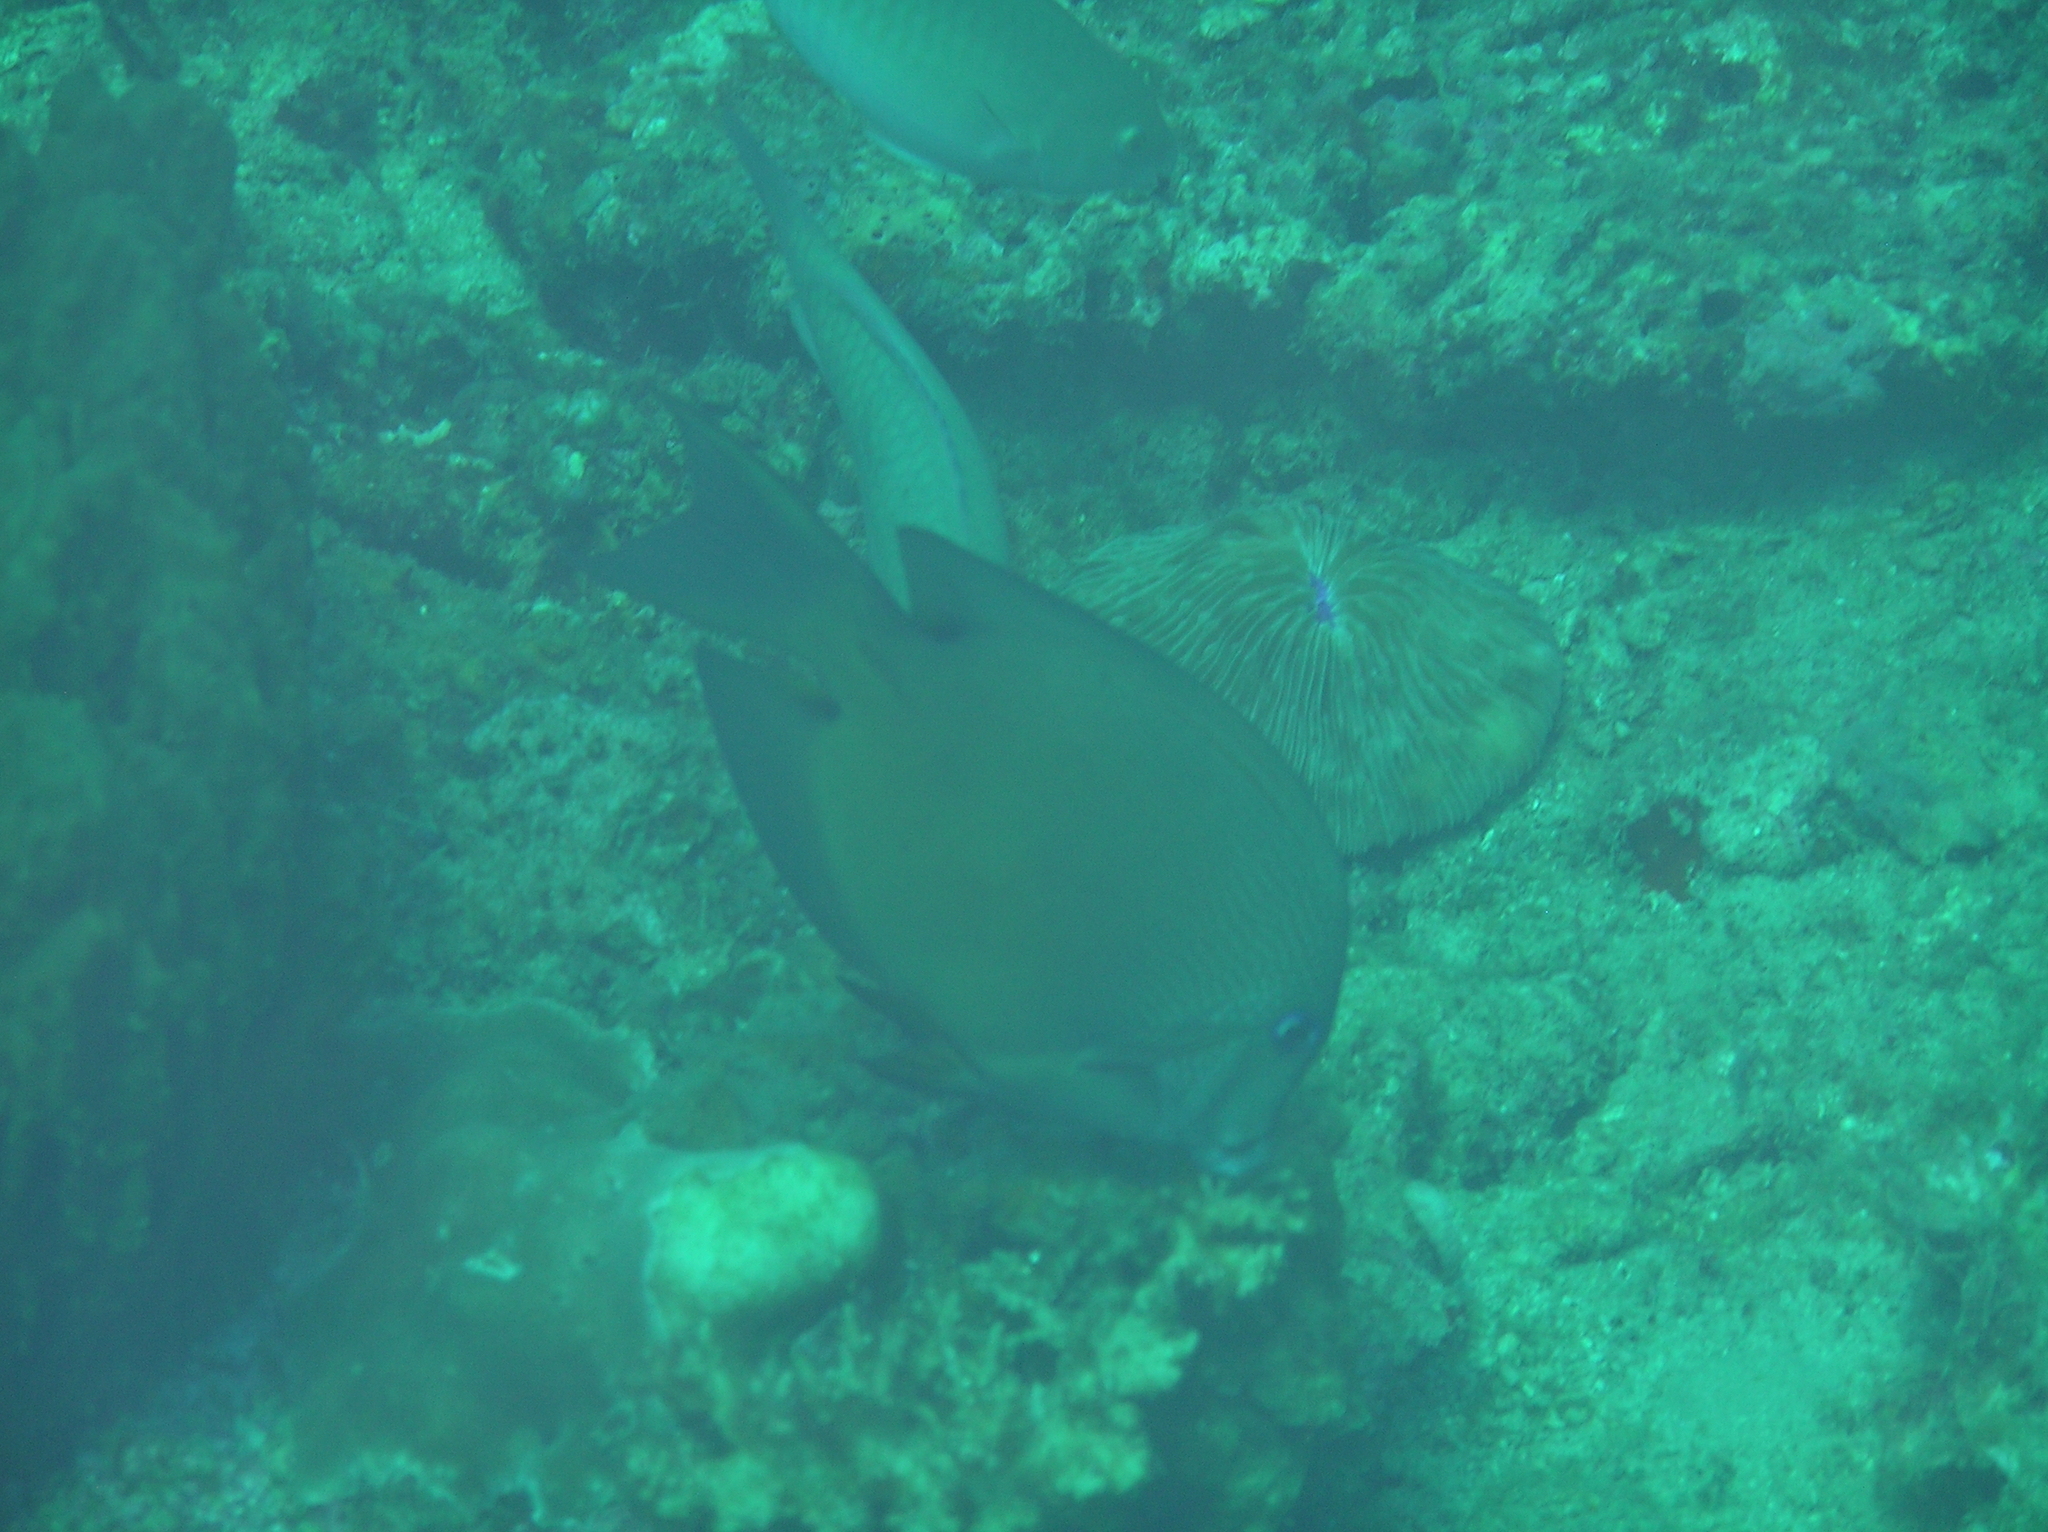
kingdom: Animalia
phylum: Chordata
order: Perciformes
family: Acanthuridae
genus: Ctenochaetus
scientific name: Ctenochaetus binotatus
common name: Two-spot bristletooth
